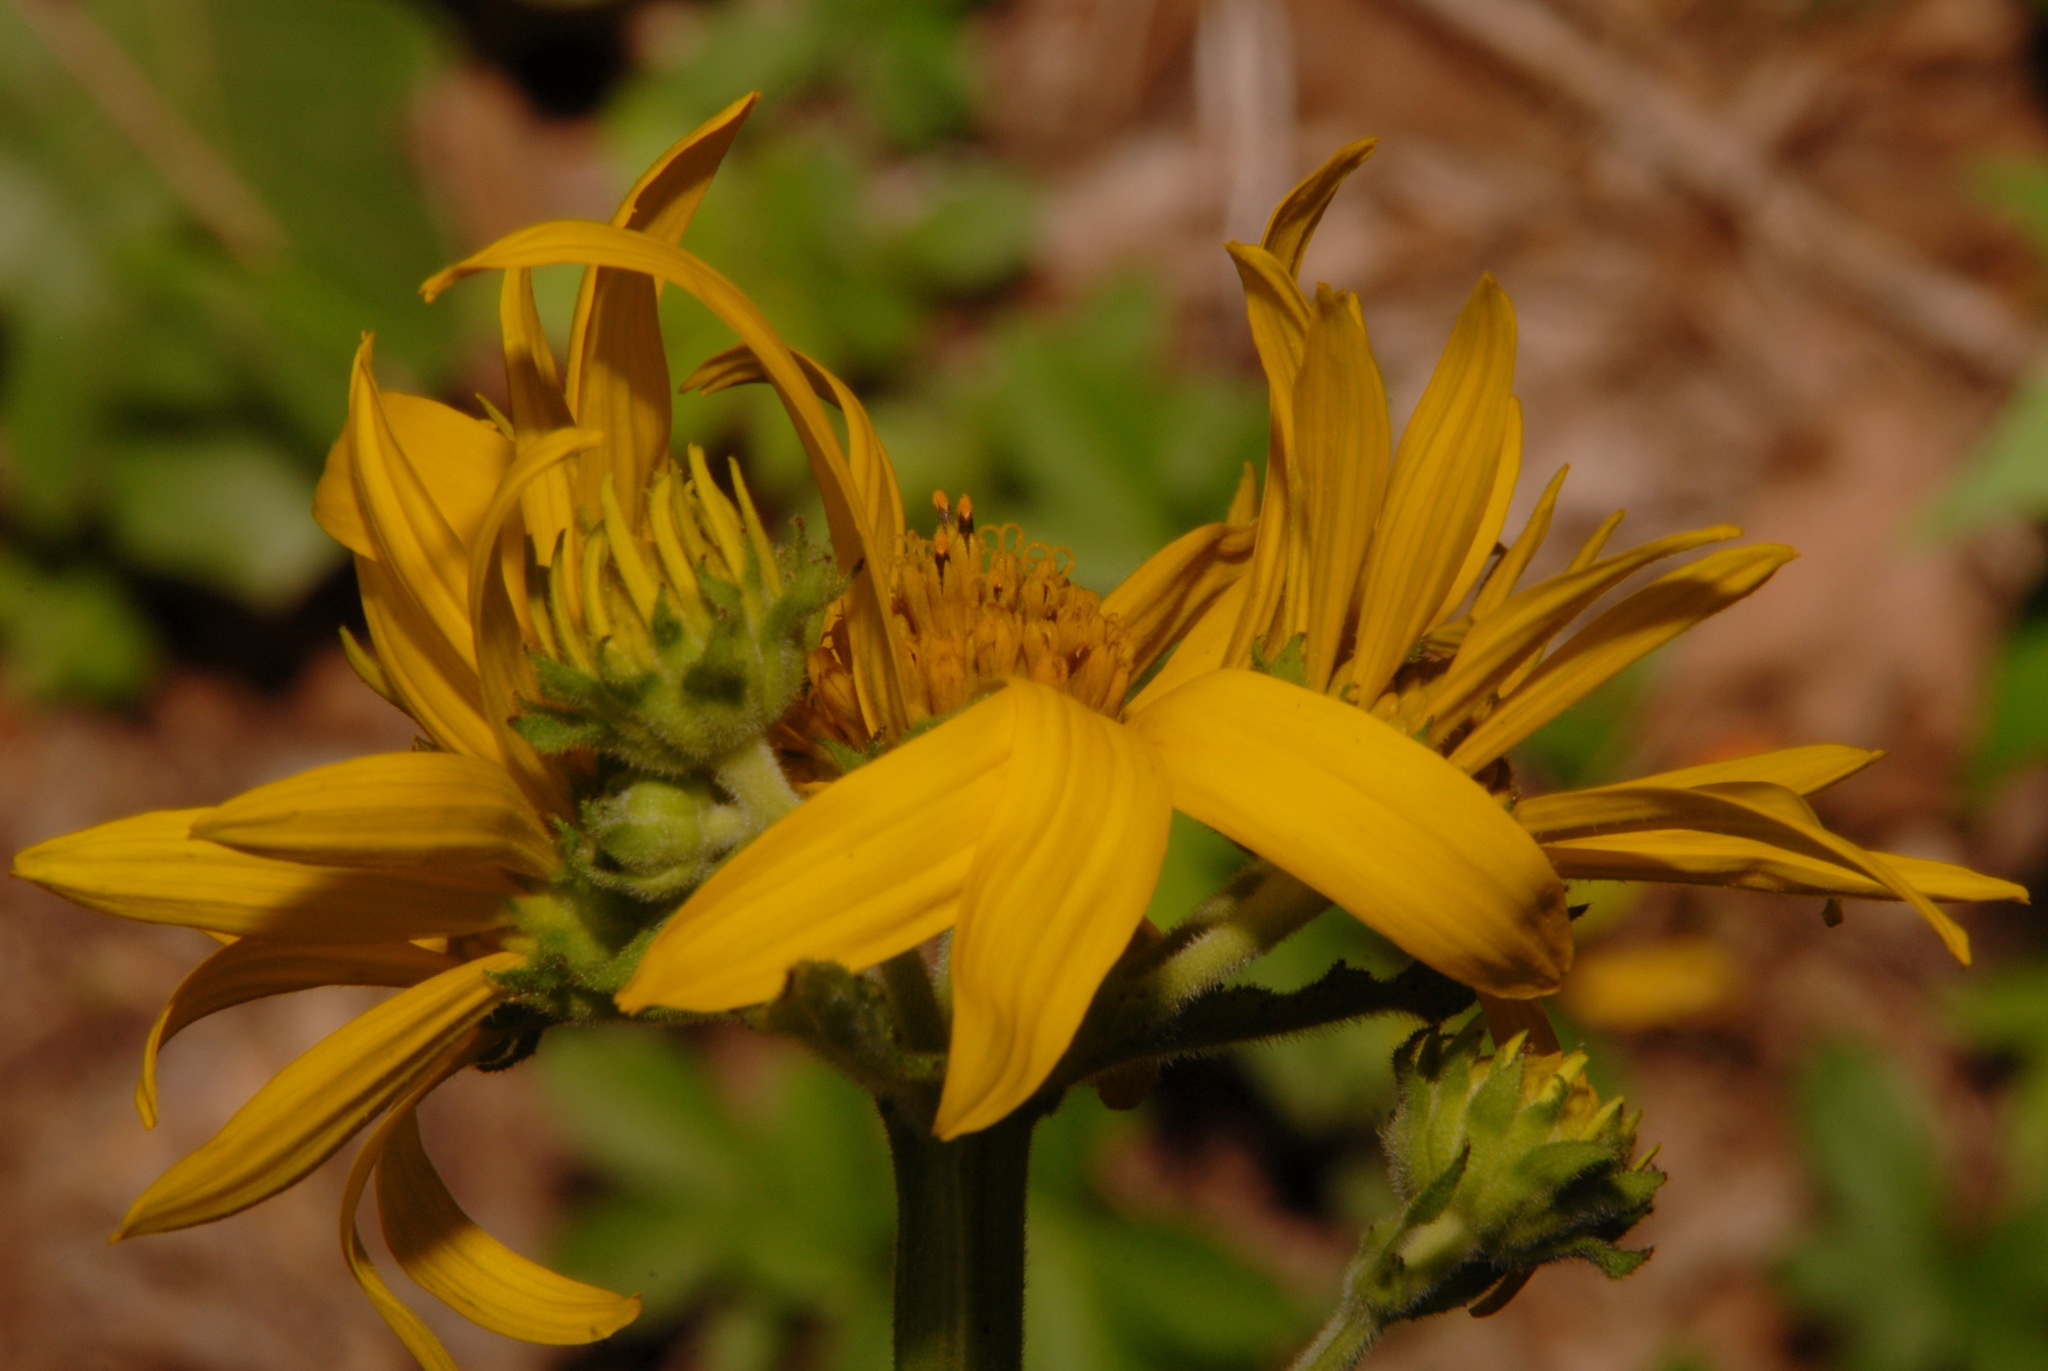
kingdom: Plantae
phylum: Tracheophyta
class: Magnoliopsida
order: Asterales
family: Asteraceae
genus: Verbesina
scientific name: Verbesina helianthoides
